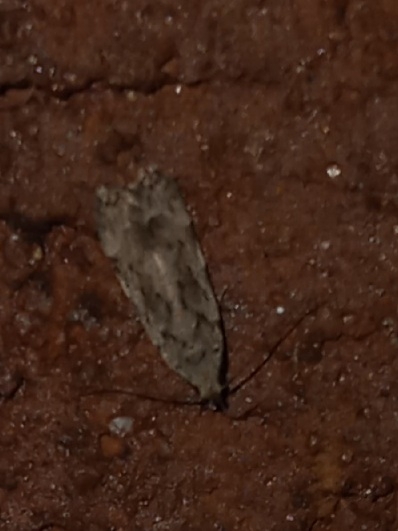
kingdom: Animalia
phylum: Arthropoda
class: Insecta
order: Lepidoptera
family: Gelechiidae
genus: Anacampsis
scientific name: Anacampsis conclusella
